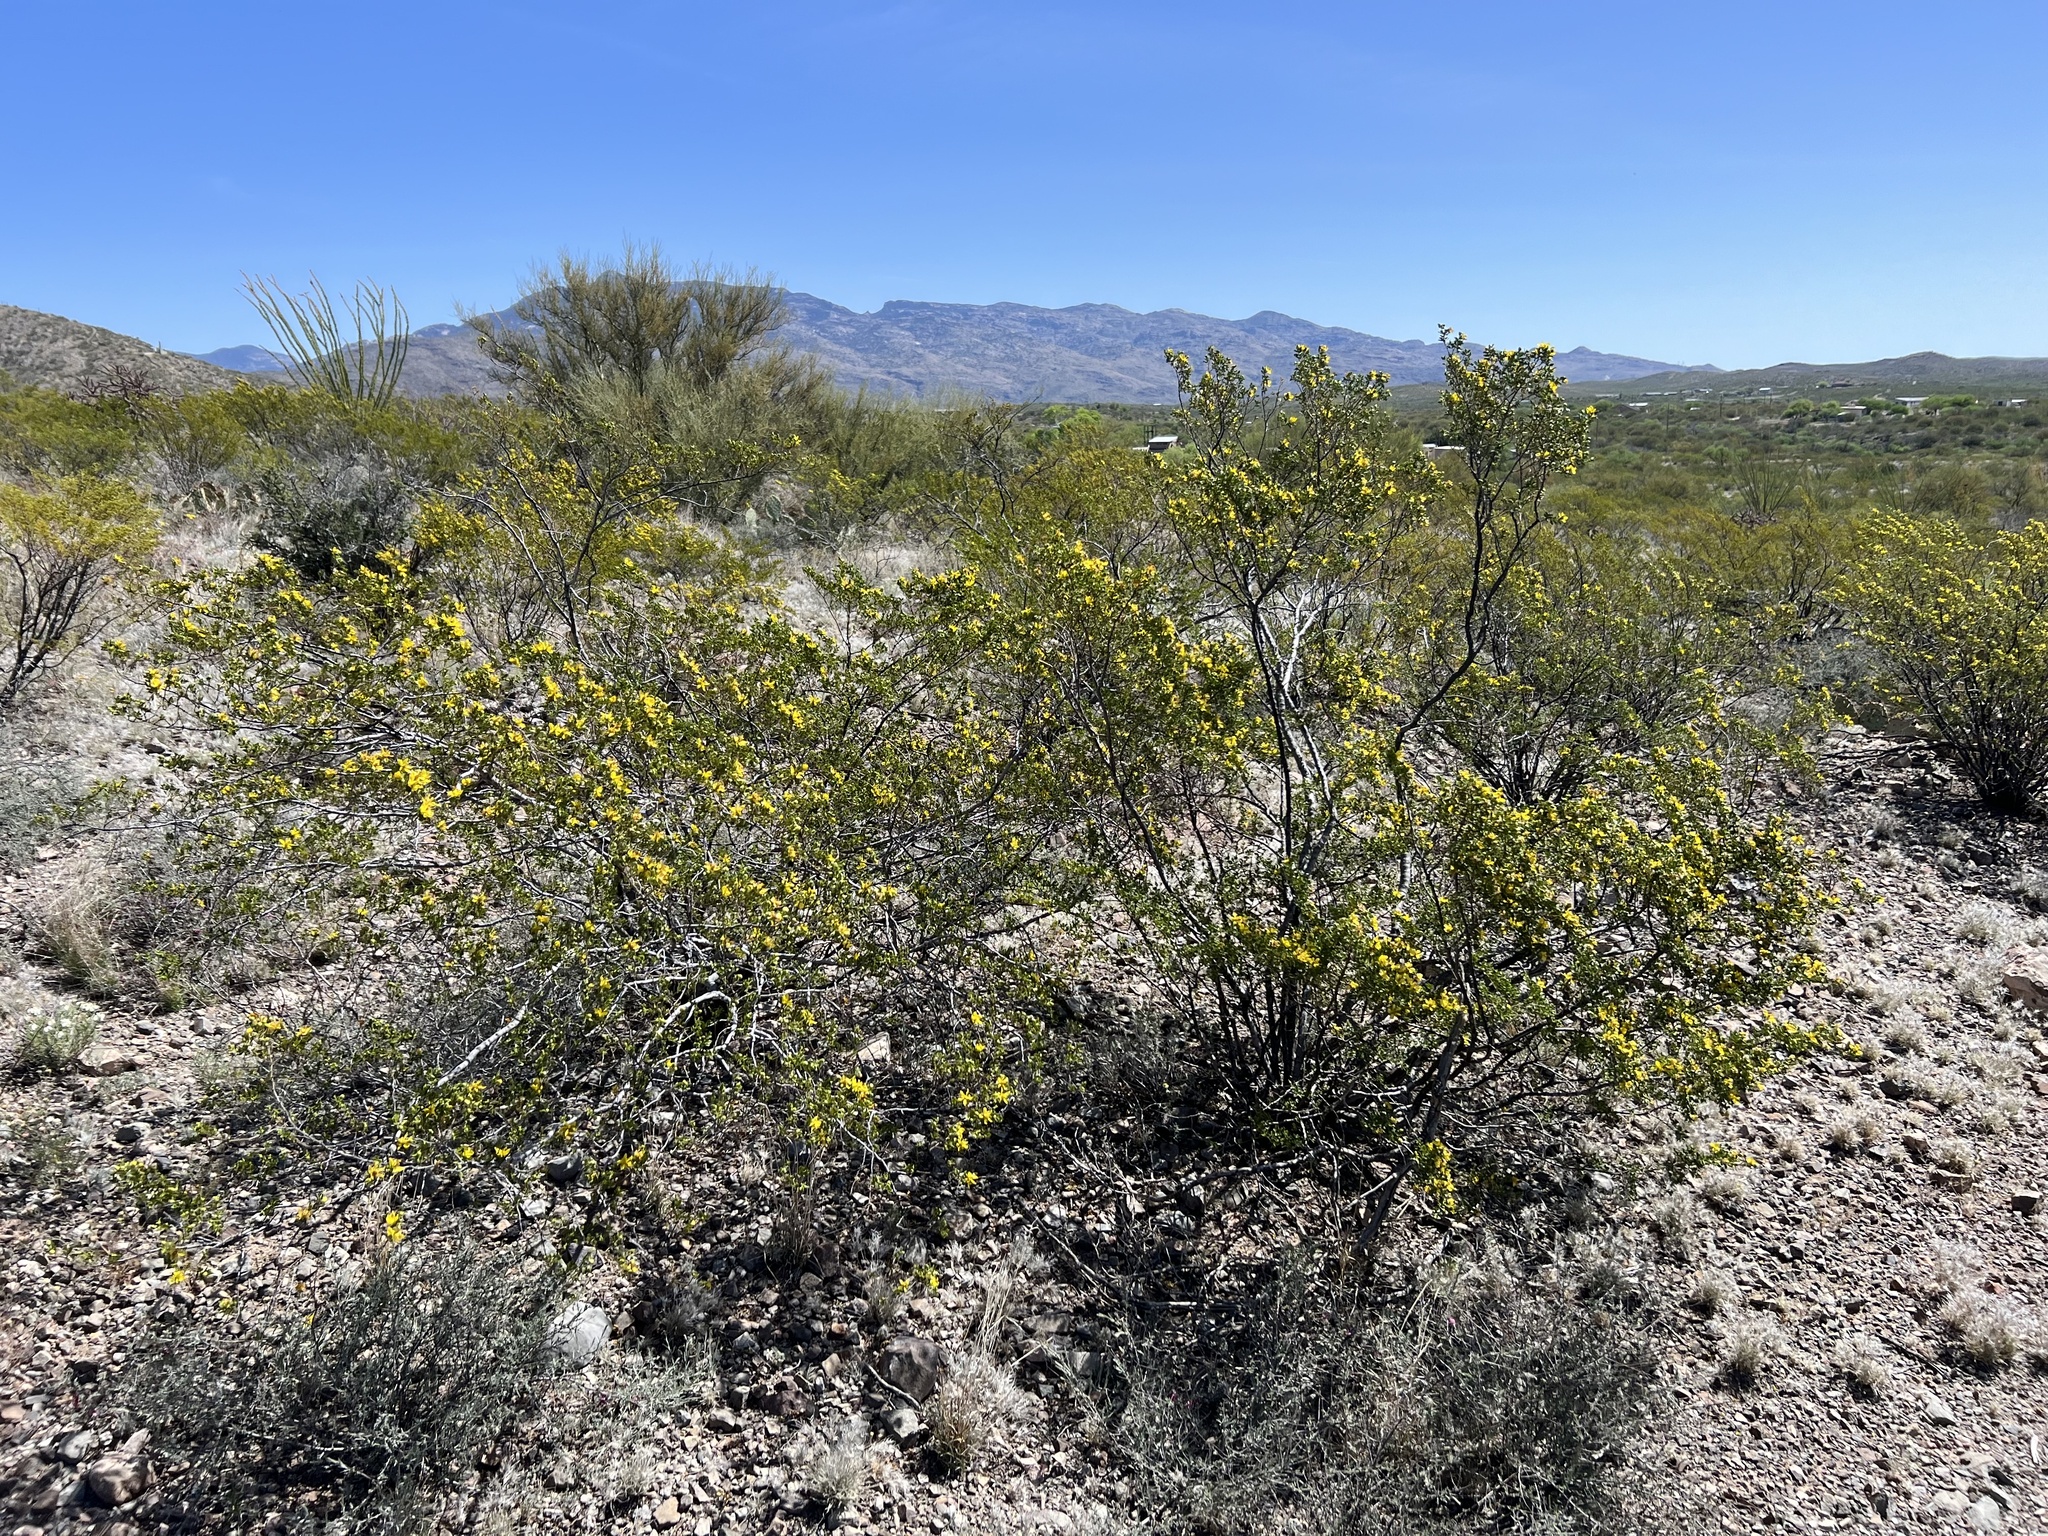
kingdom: Plantae
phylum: Tracheophyta
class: Magnoliopsida
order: Zygophyllales
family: Zygophyllaceae
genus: Larrea
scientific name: Larrea tridentata
